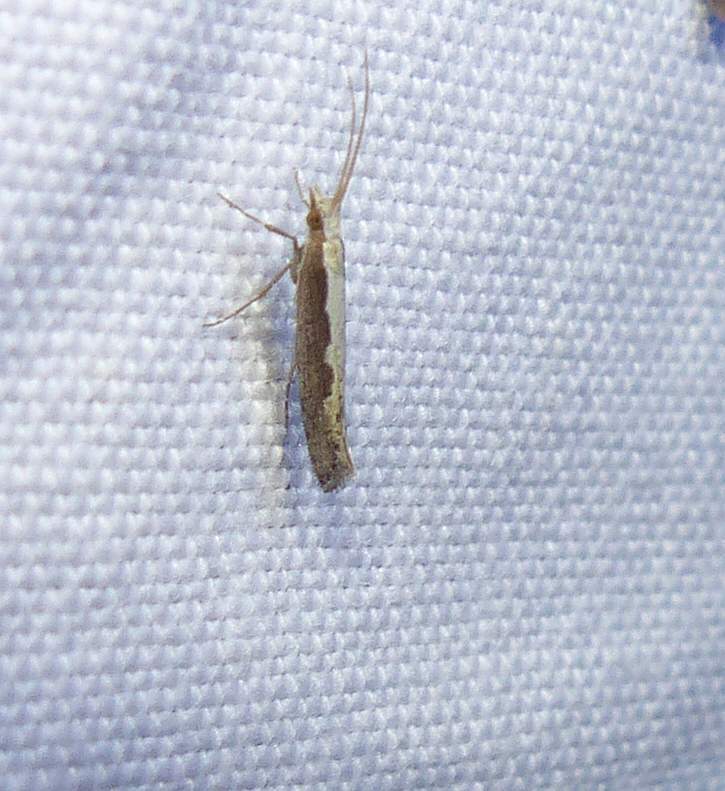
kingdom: Animalia
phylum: Arthropoda
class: Insecta
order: Lepidoptera
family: Plutellidae
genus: Plutella
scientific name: Plutella xylostella
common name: Diamond-back moth
